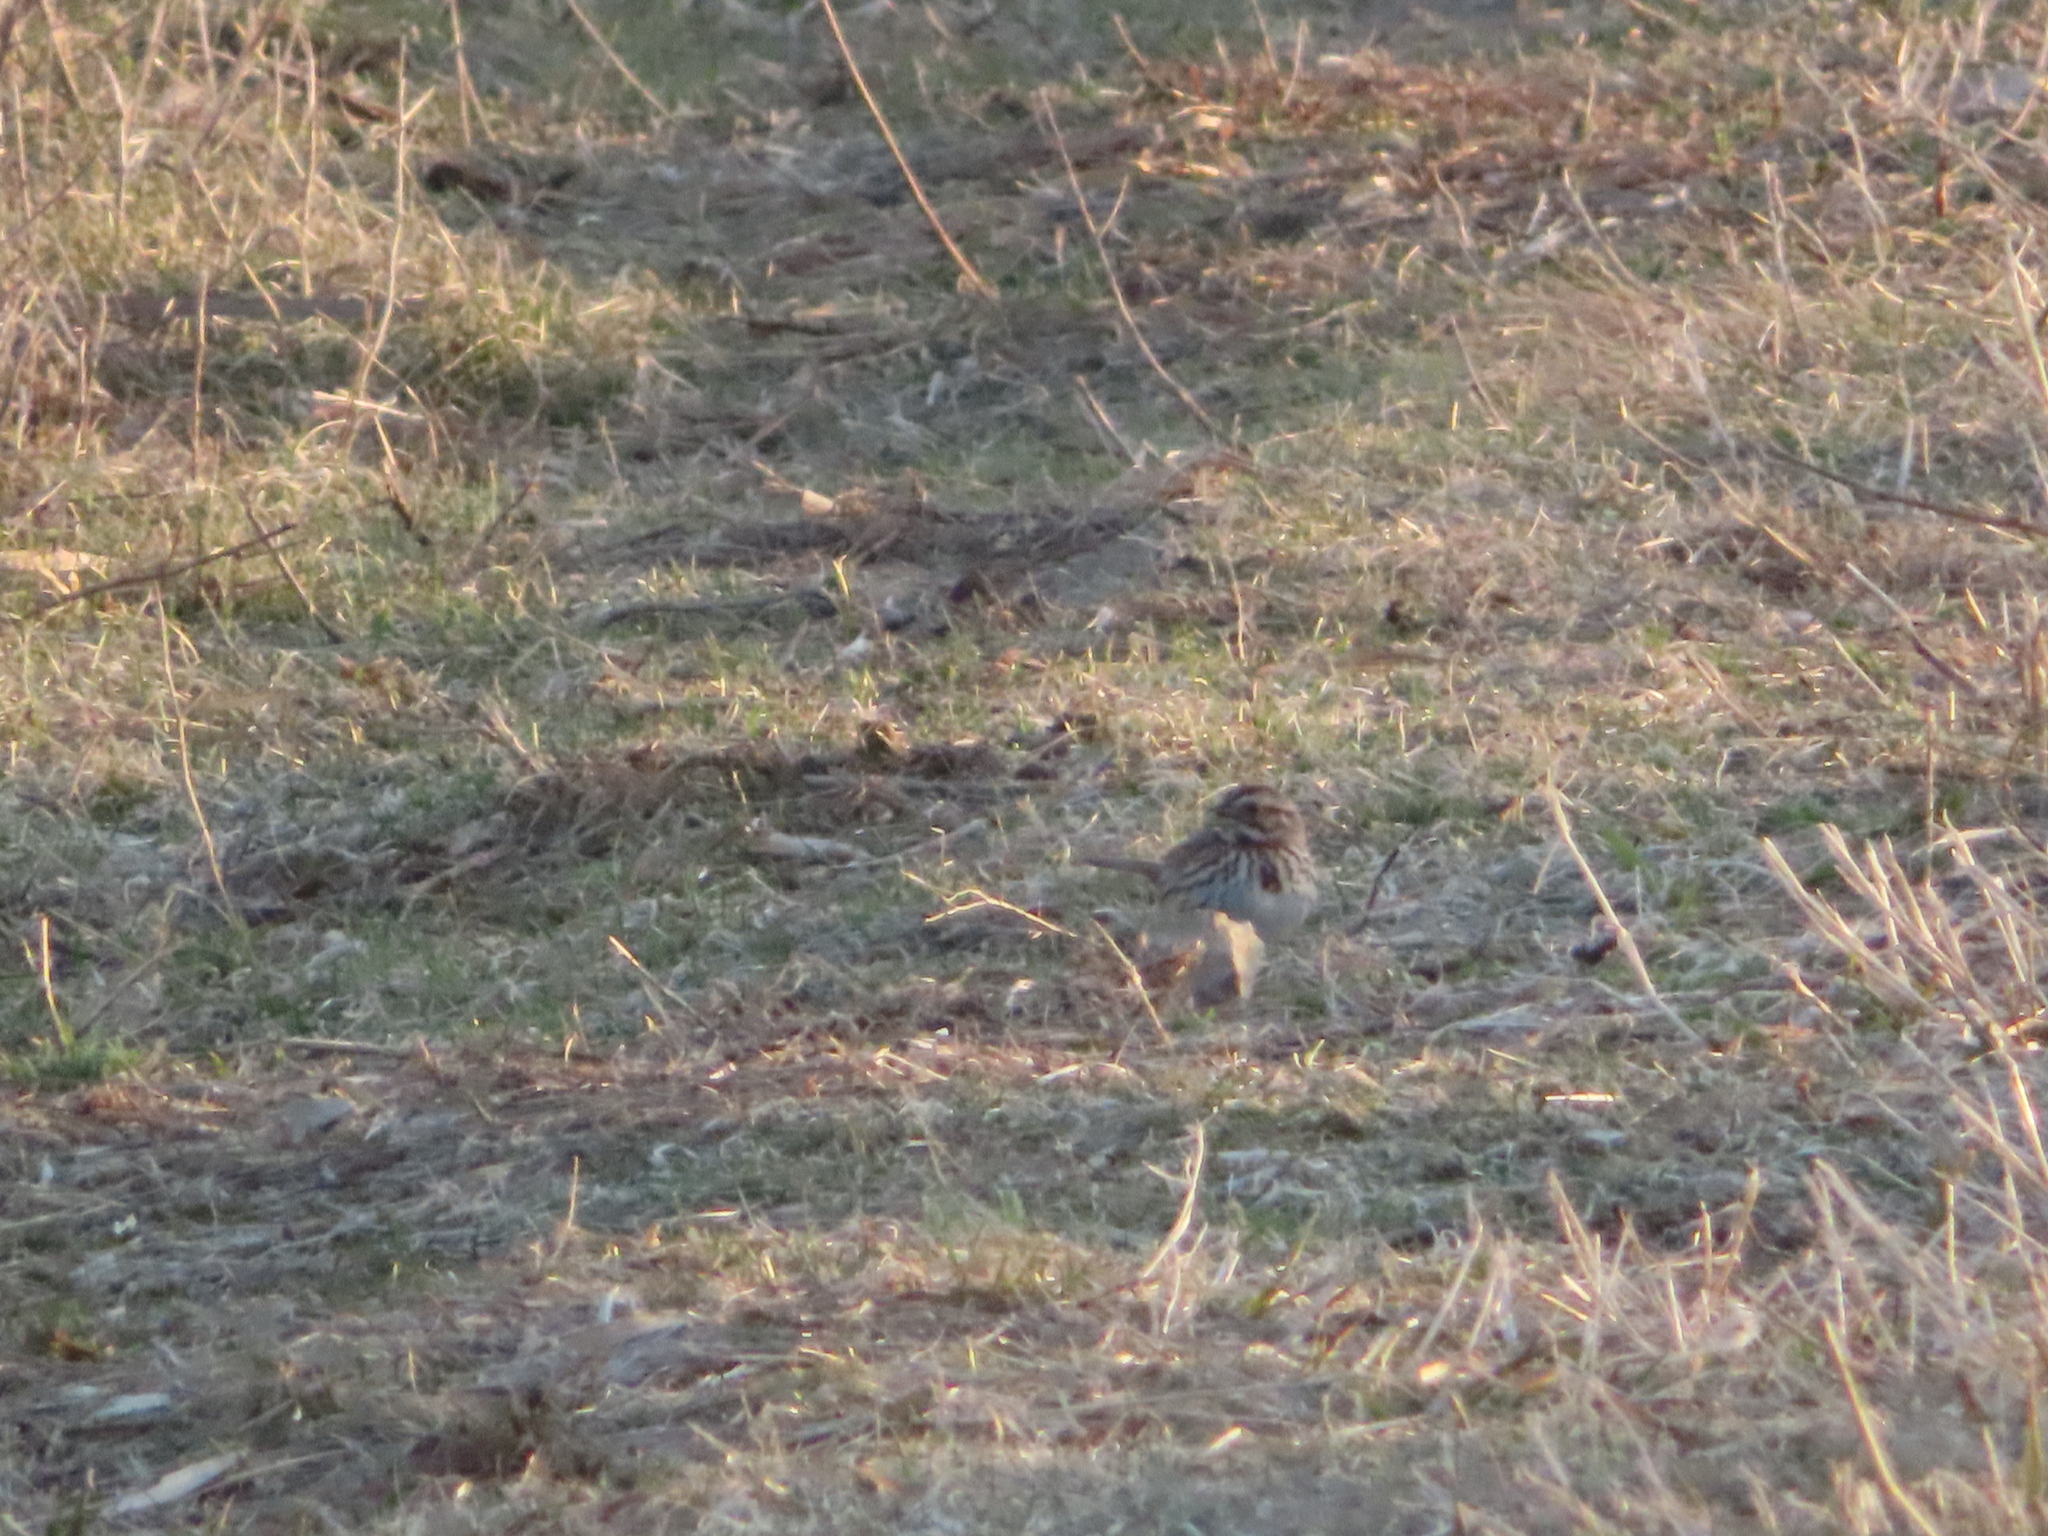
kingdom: Animalia
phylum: Chordata
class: Aves
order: Passeriformes
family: Passerellidae
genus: Melospiza
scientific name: Melospiza melodia
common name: Song sparrow
